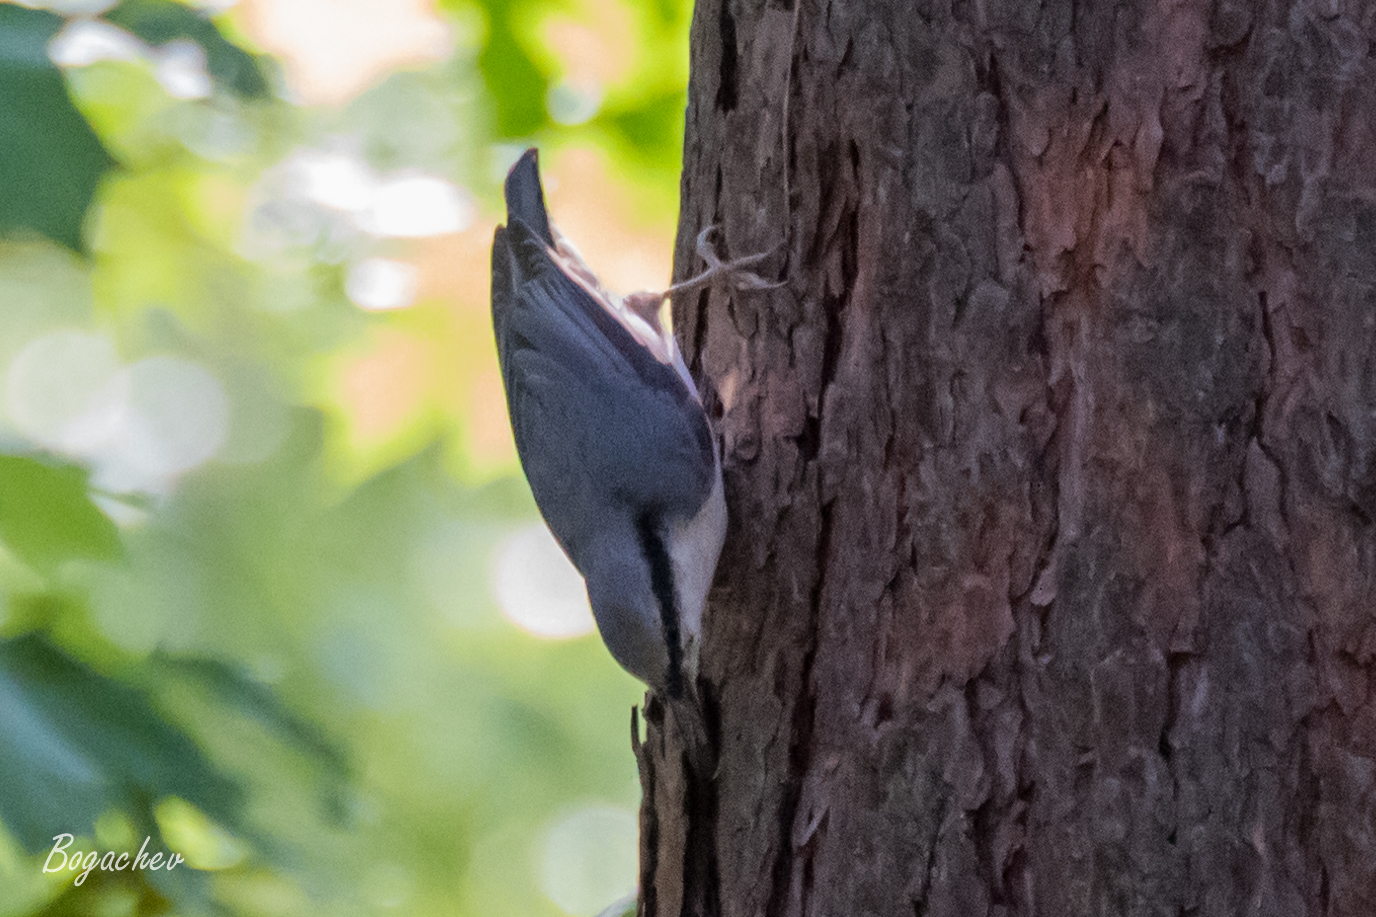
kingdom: Animalia
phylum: Chordata
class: Aves
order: Passeriformes
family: Sittidae
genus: Sitta
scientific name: Sitta europaea
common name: Eurasian nuthatch
